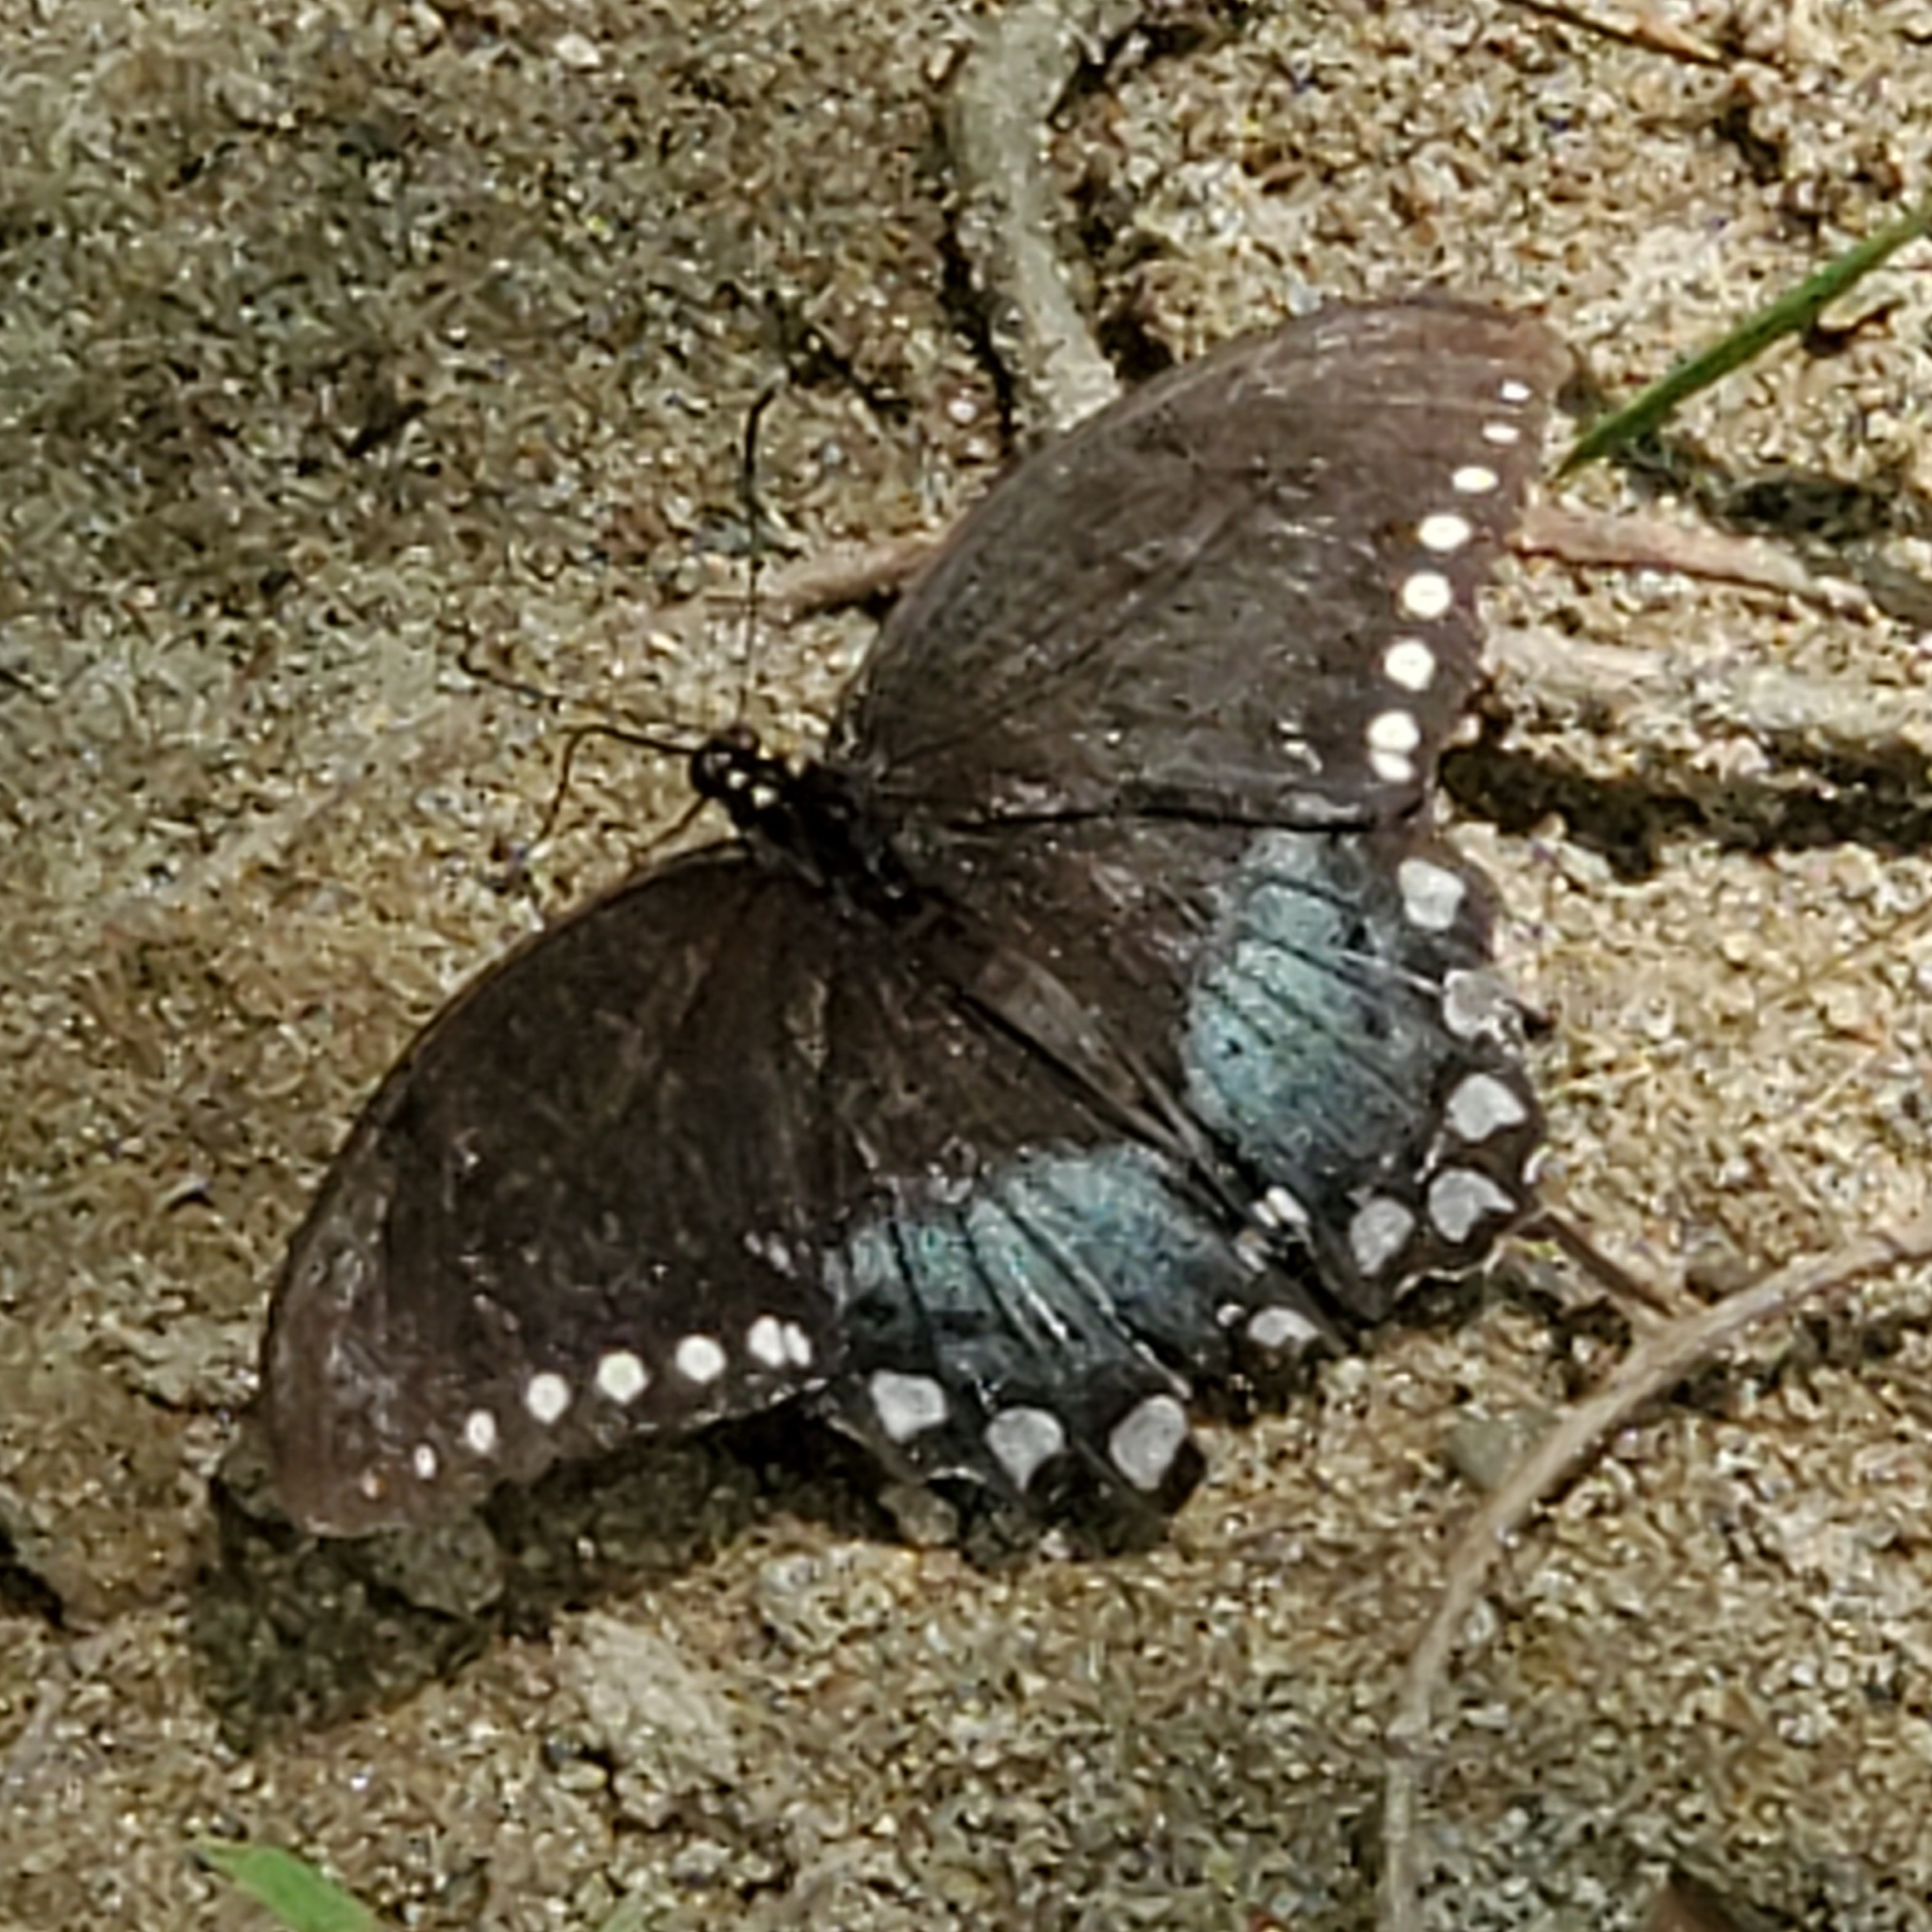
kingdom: Animalia
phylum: Arthropoda
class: Insecta
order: Lepidoptera
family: Papilionidae
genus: Papilio
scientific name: Papilio troilus
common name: Spicebush swallowtail
